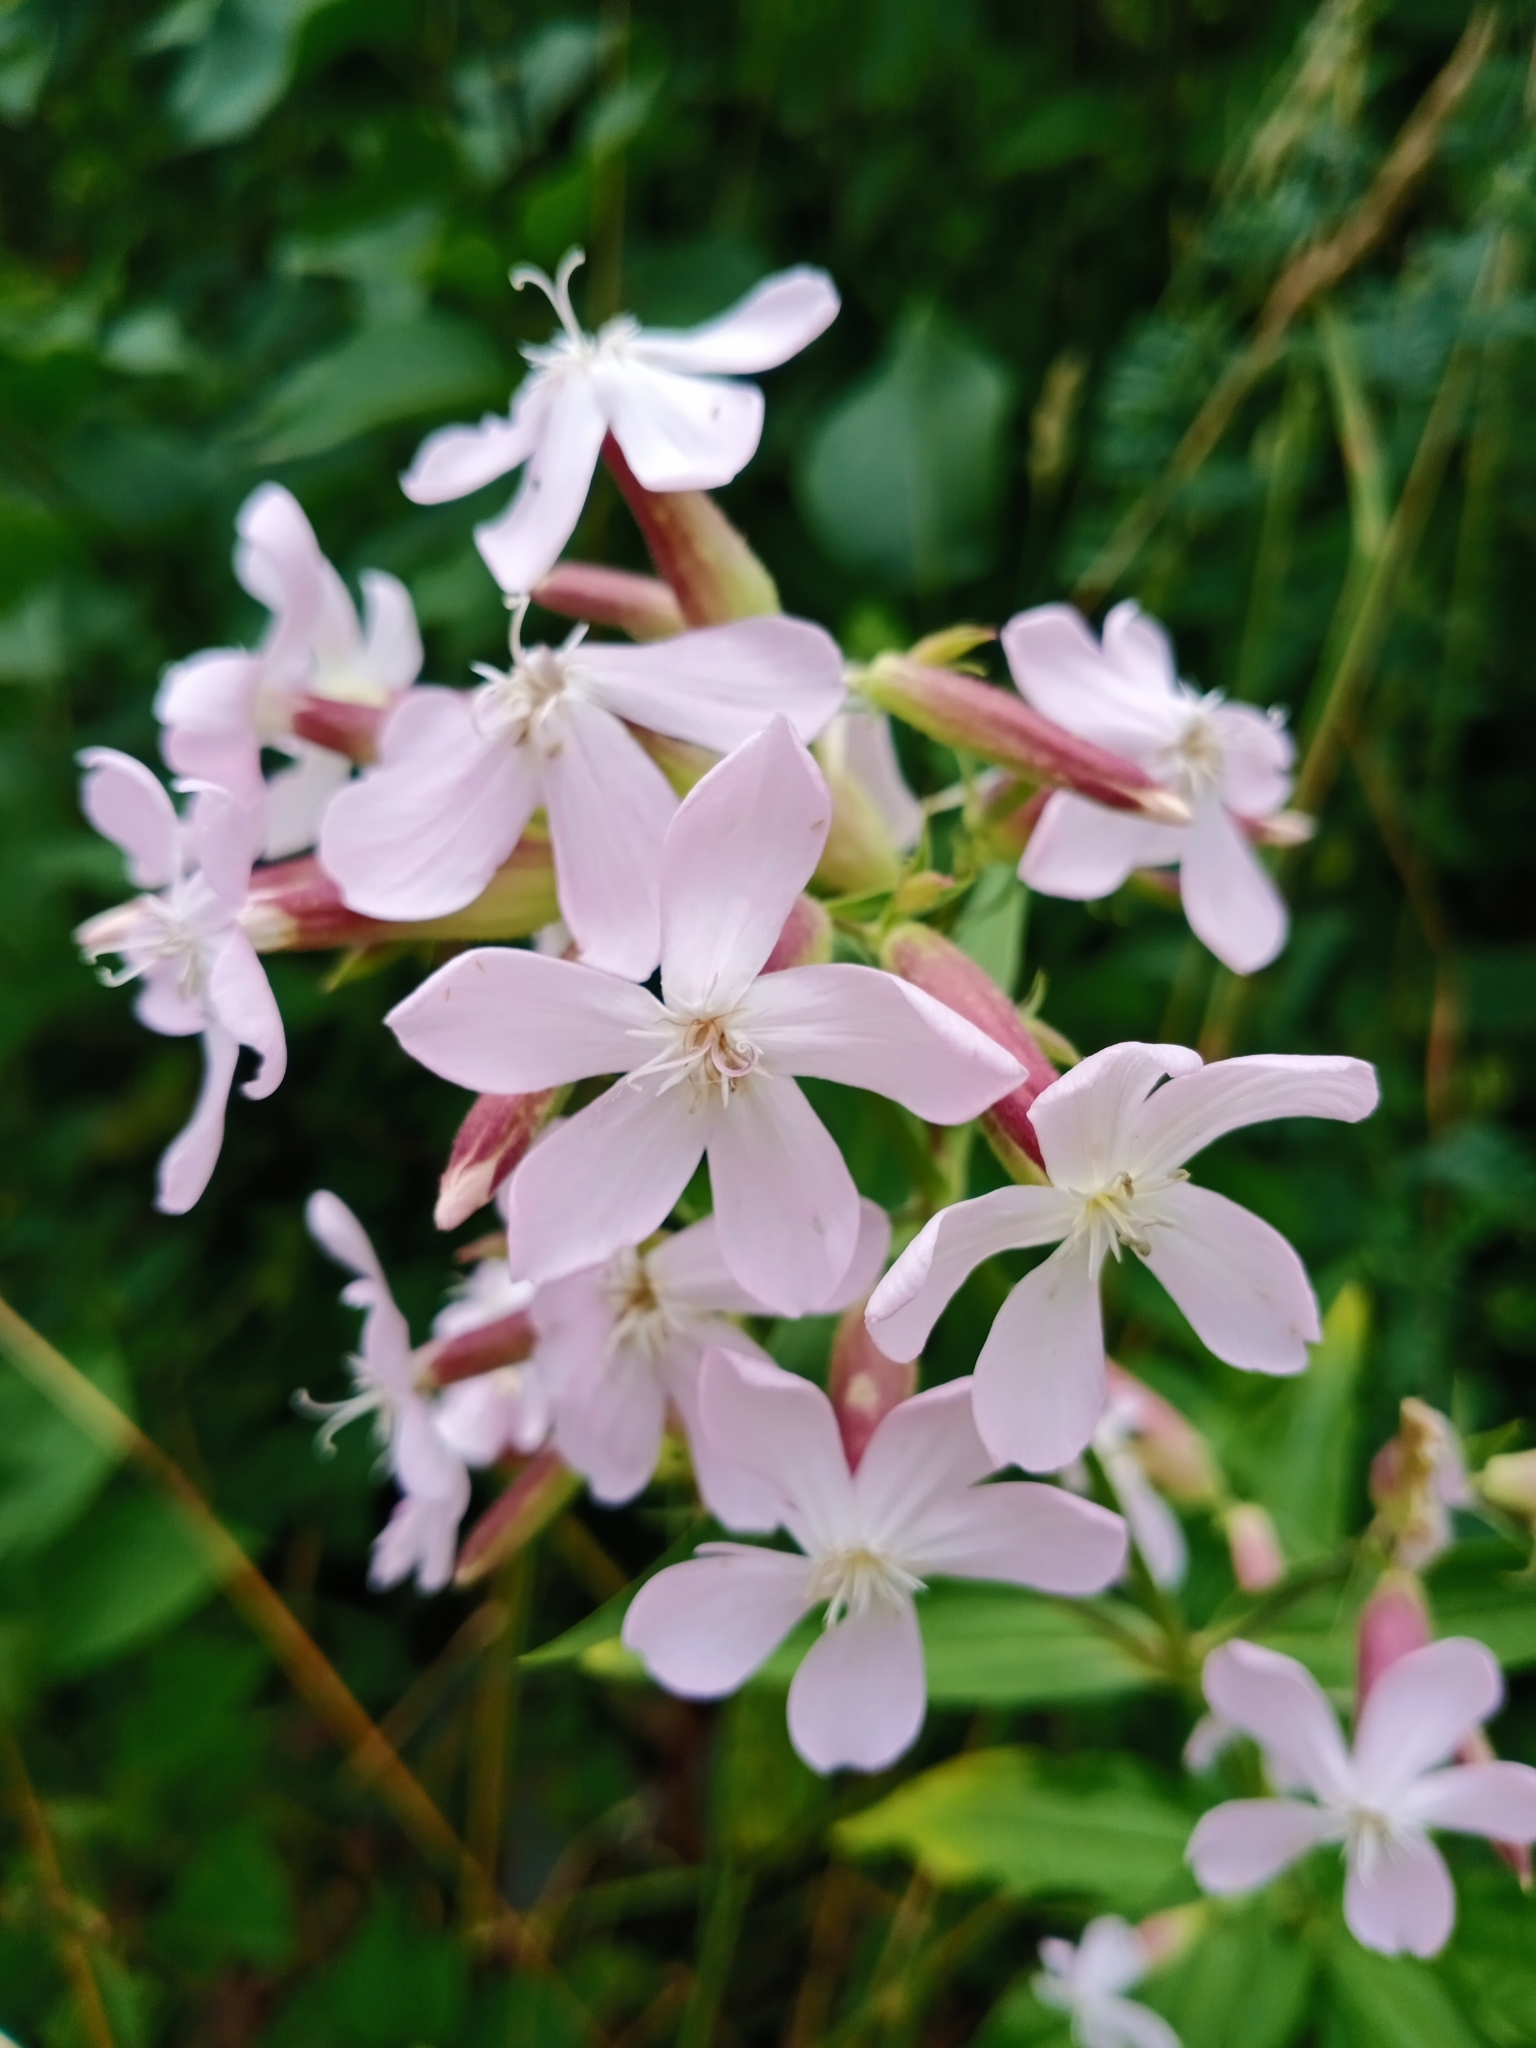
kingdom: Plantae
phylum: Tracheophyta
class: Magnoliopsida
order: Caryophyllales
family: Caryophyllaceae
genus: Saponaria
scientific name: Saponaria officinalis
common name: Soapwort
